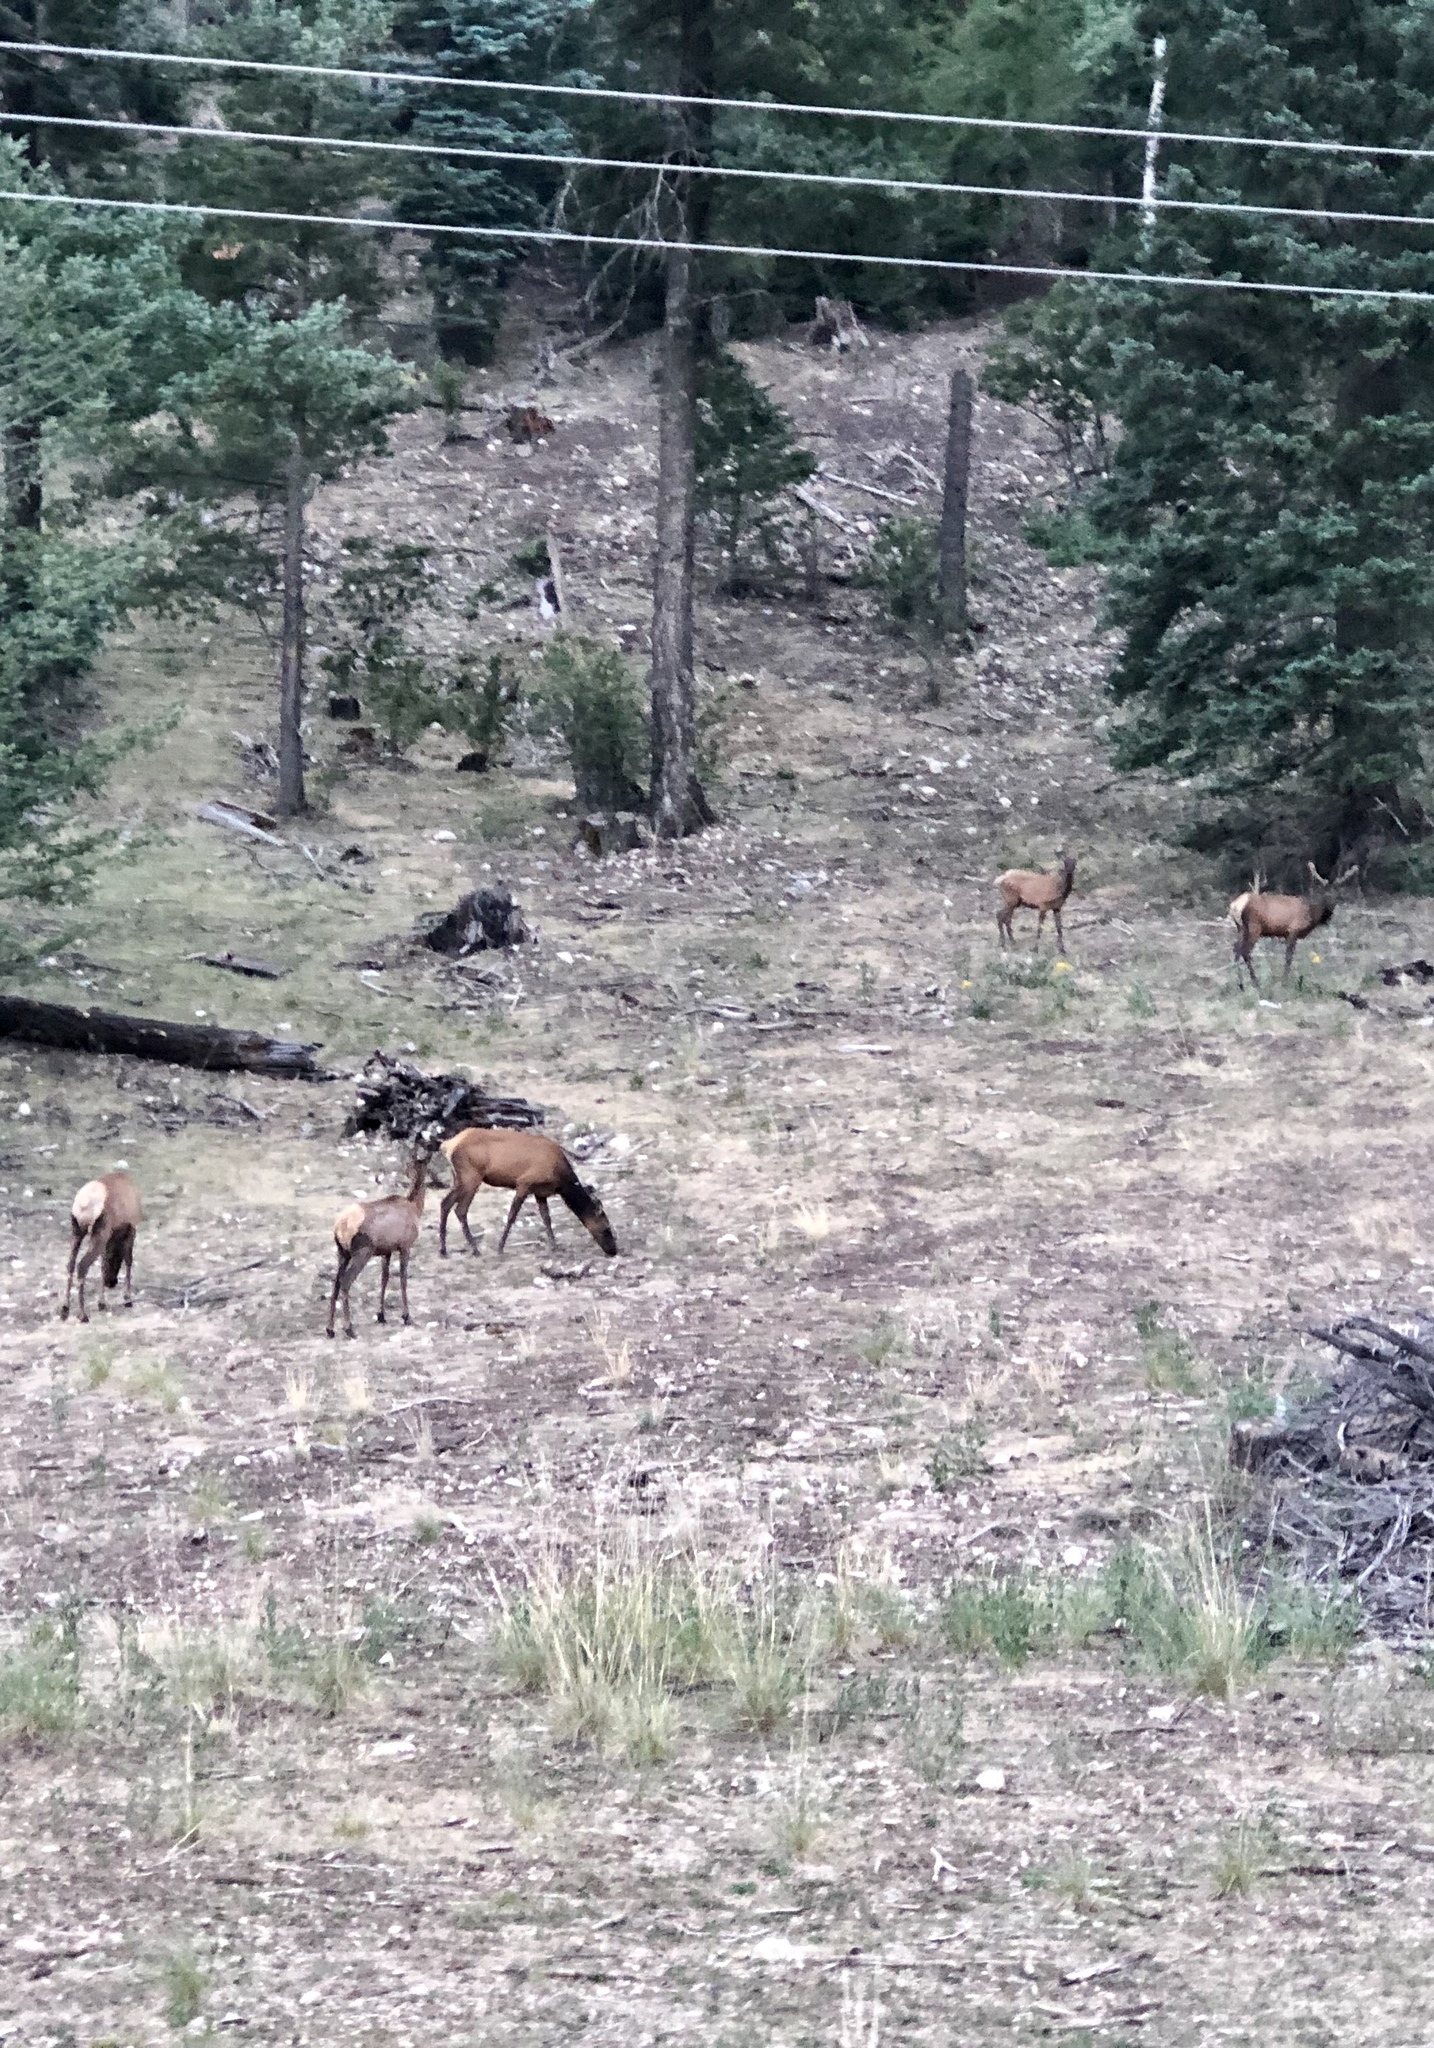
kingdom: Animalia
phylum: Chordata
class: Mammalia
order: Artiodactyla
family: Cervidae
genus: Cervus
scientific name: Cervus elaphus
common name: Red deer
